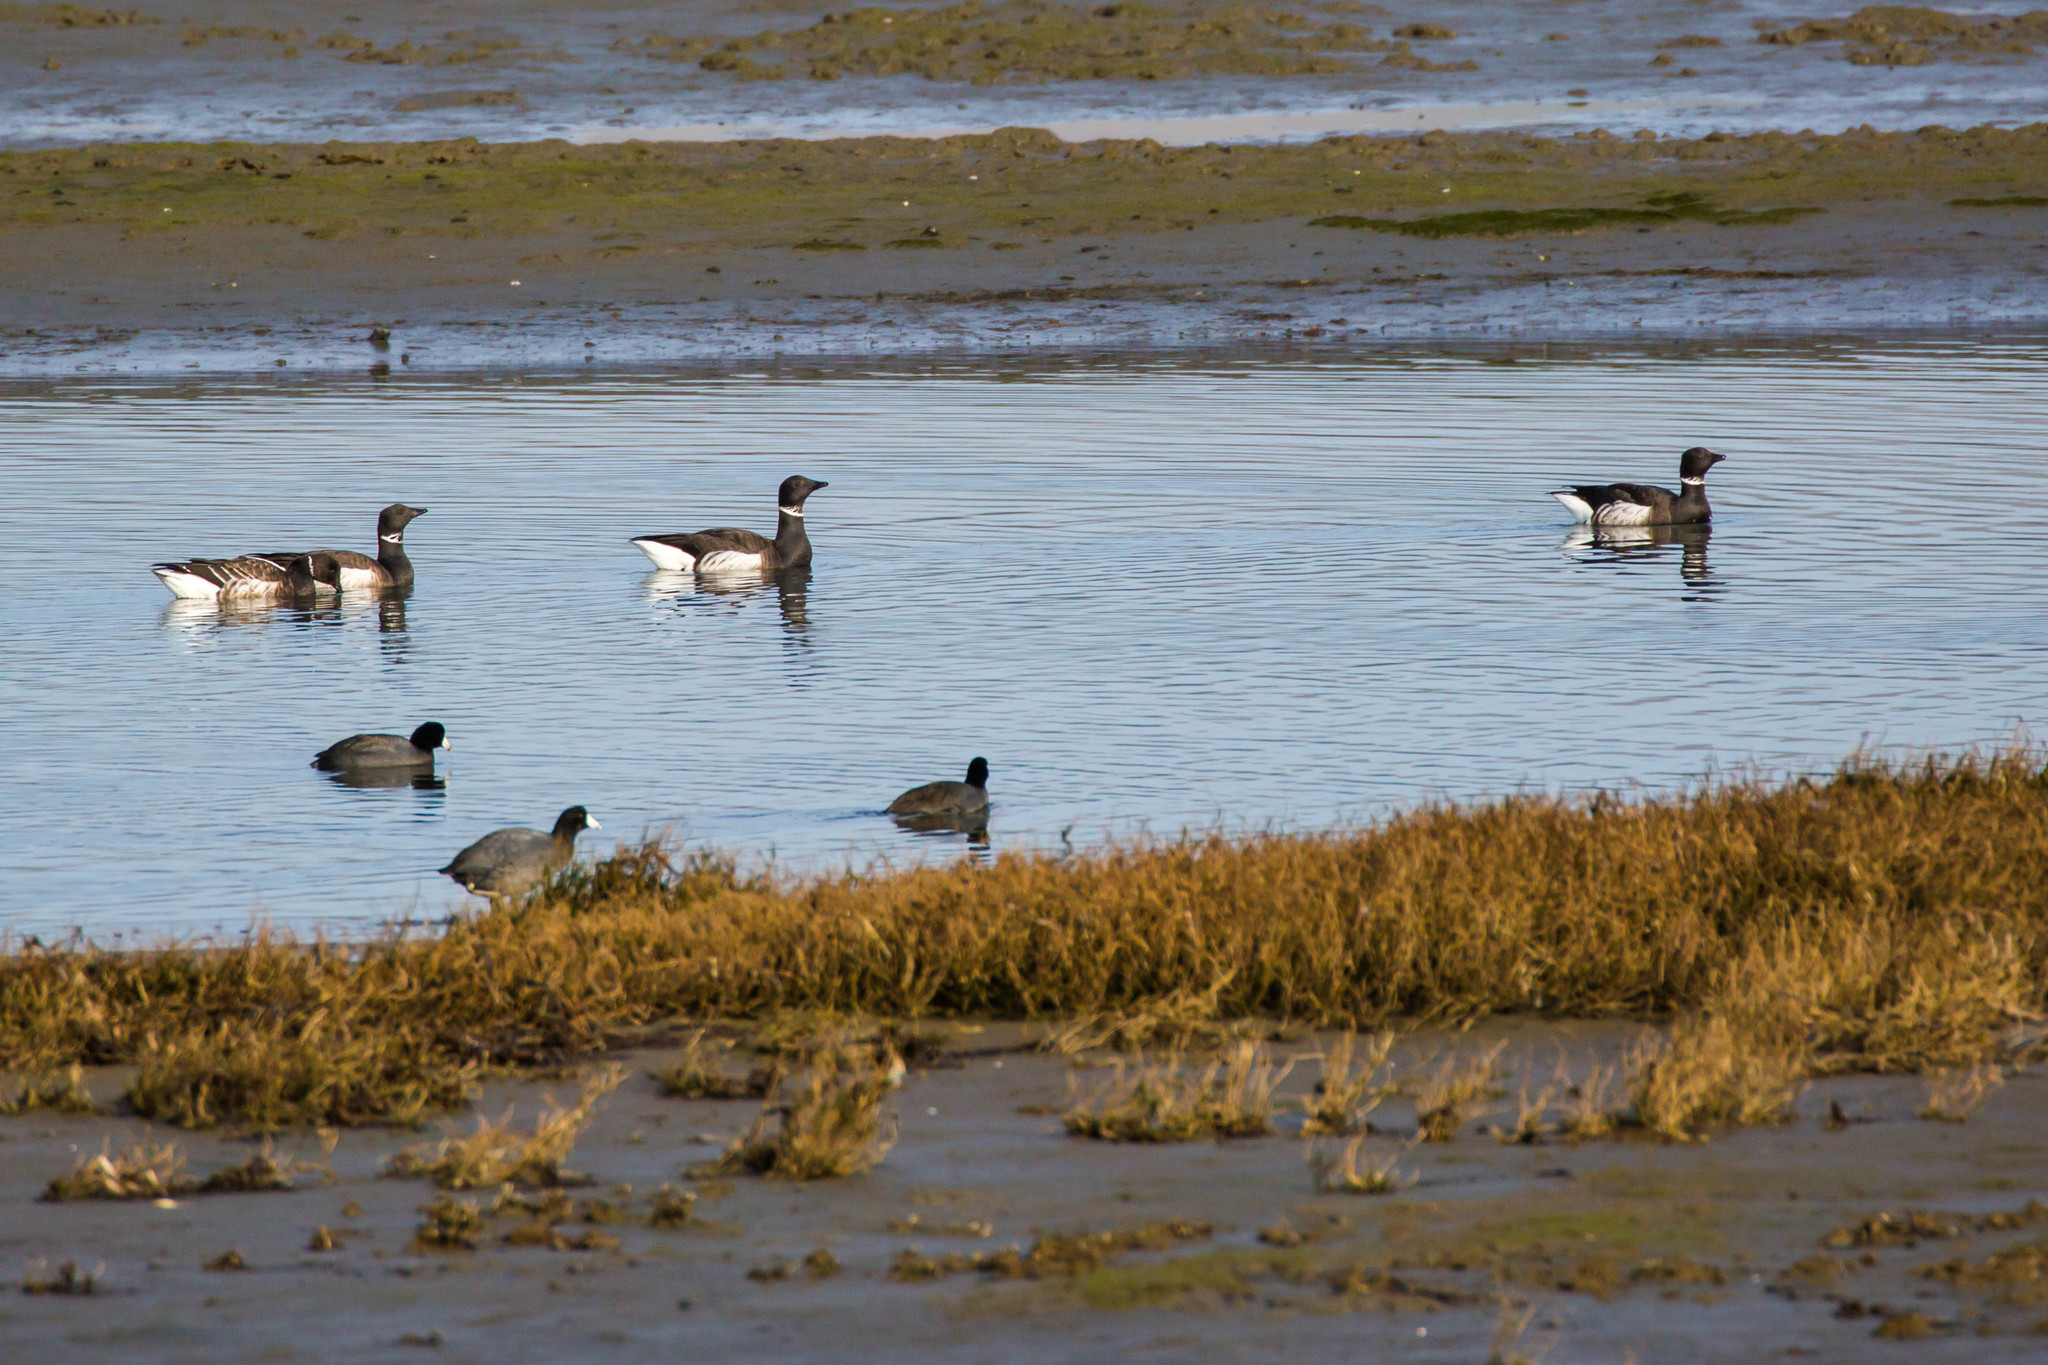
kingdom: Animalia
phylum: Chordata
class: Aves
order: Anseriformes
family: Anatidae
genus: Branta
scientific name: Branta bernicla
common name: Brant goose
